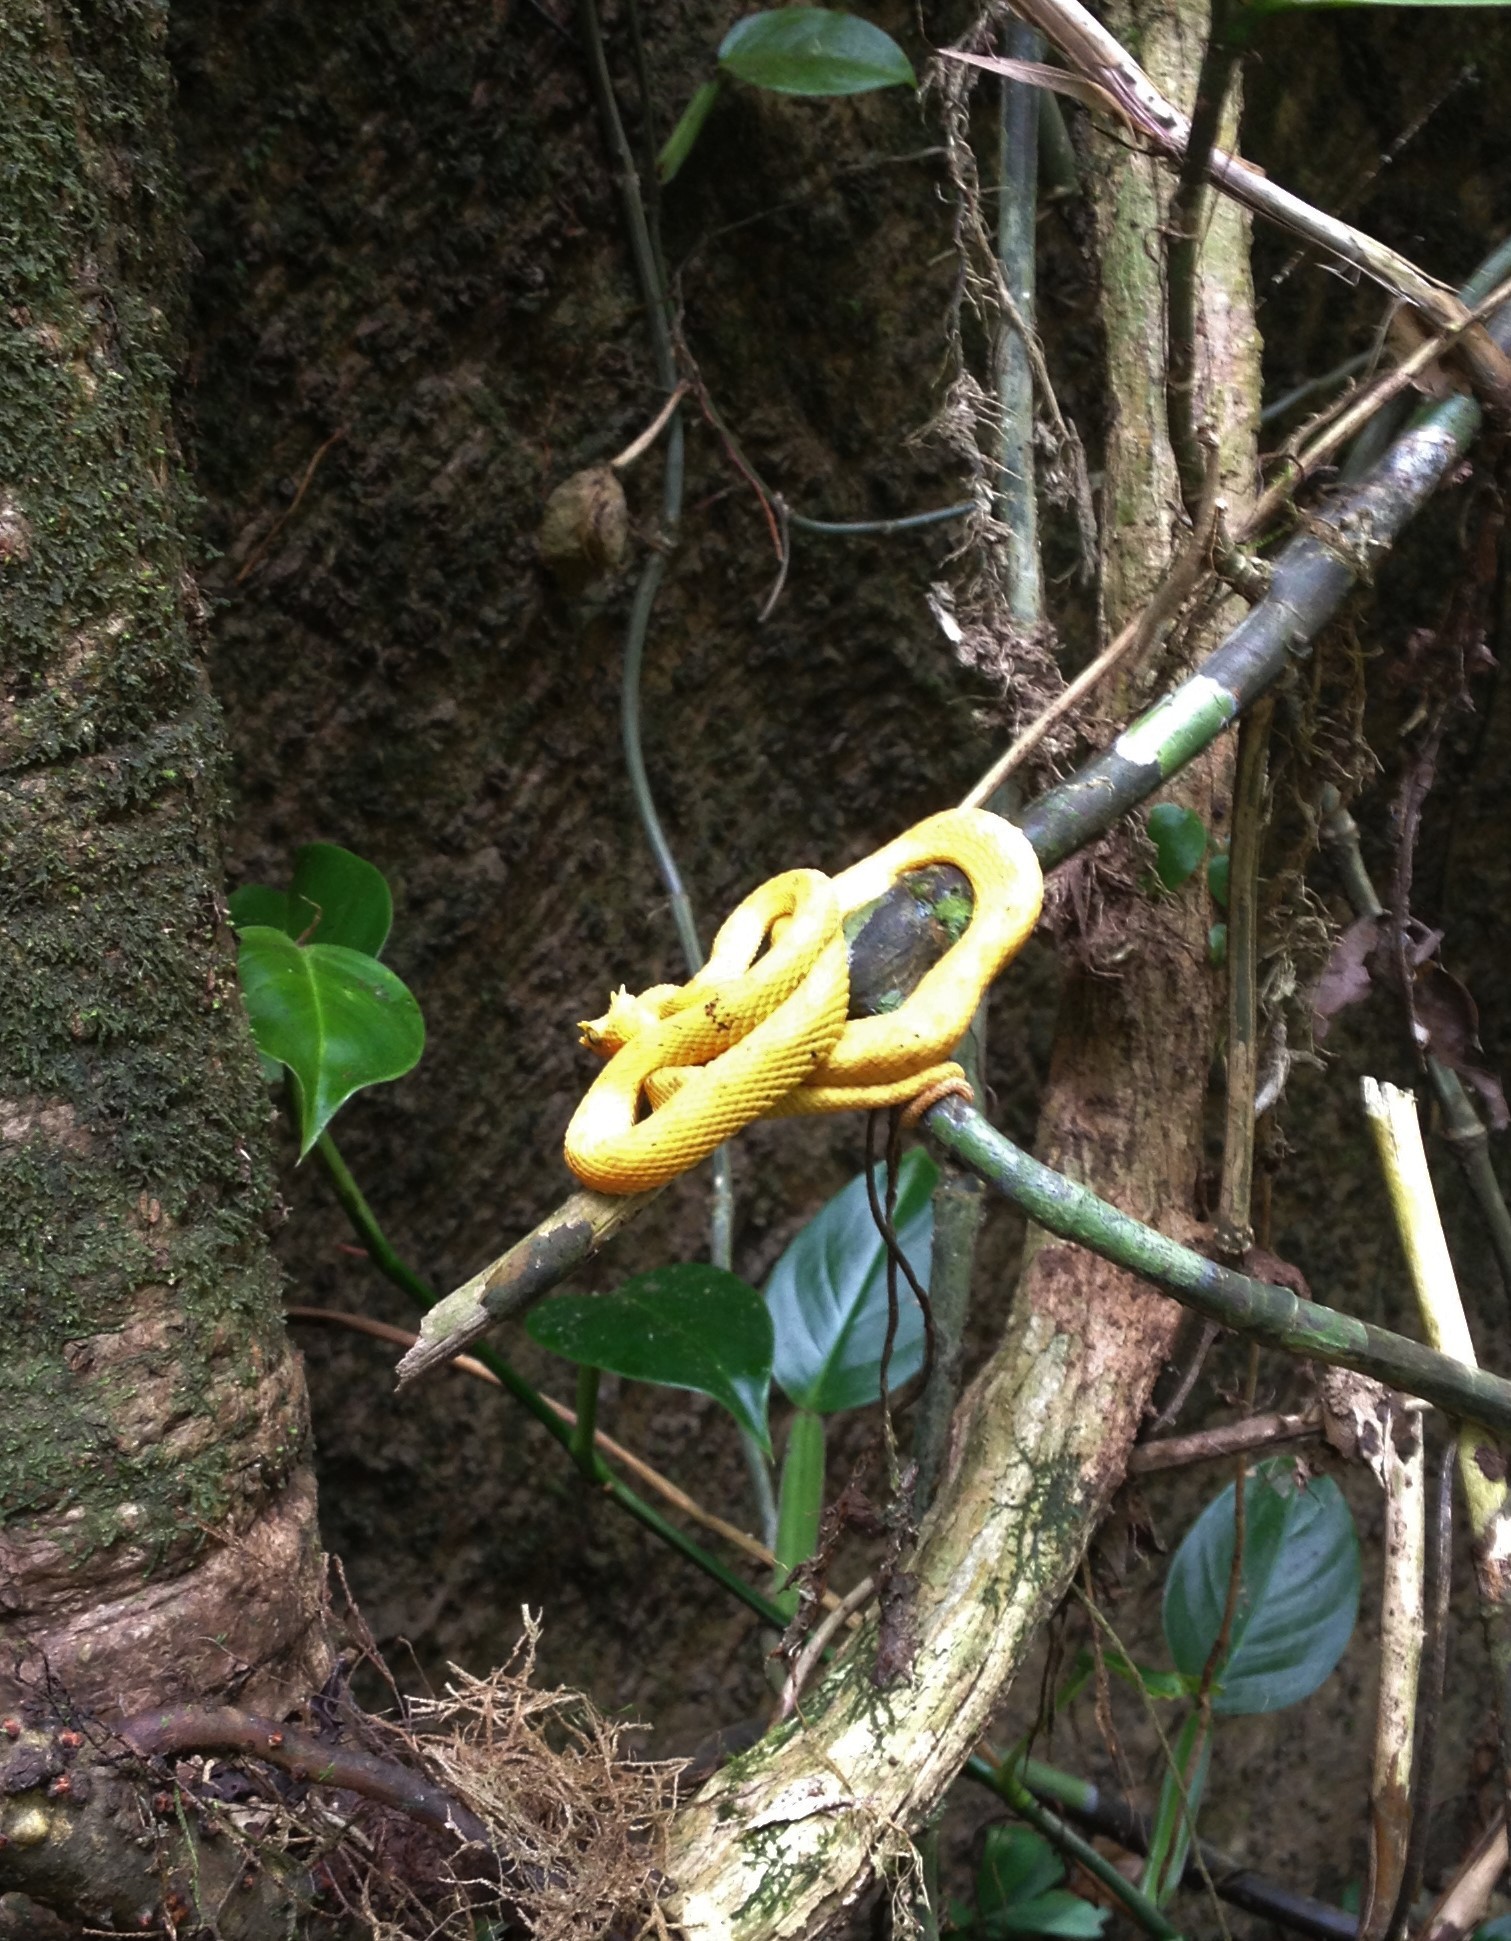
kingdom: Animalia
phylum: Chordata
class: Squamata
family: Viperidae
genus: Bothriechis
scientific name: Bothriechis schlegelii
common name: Eyelash viper
